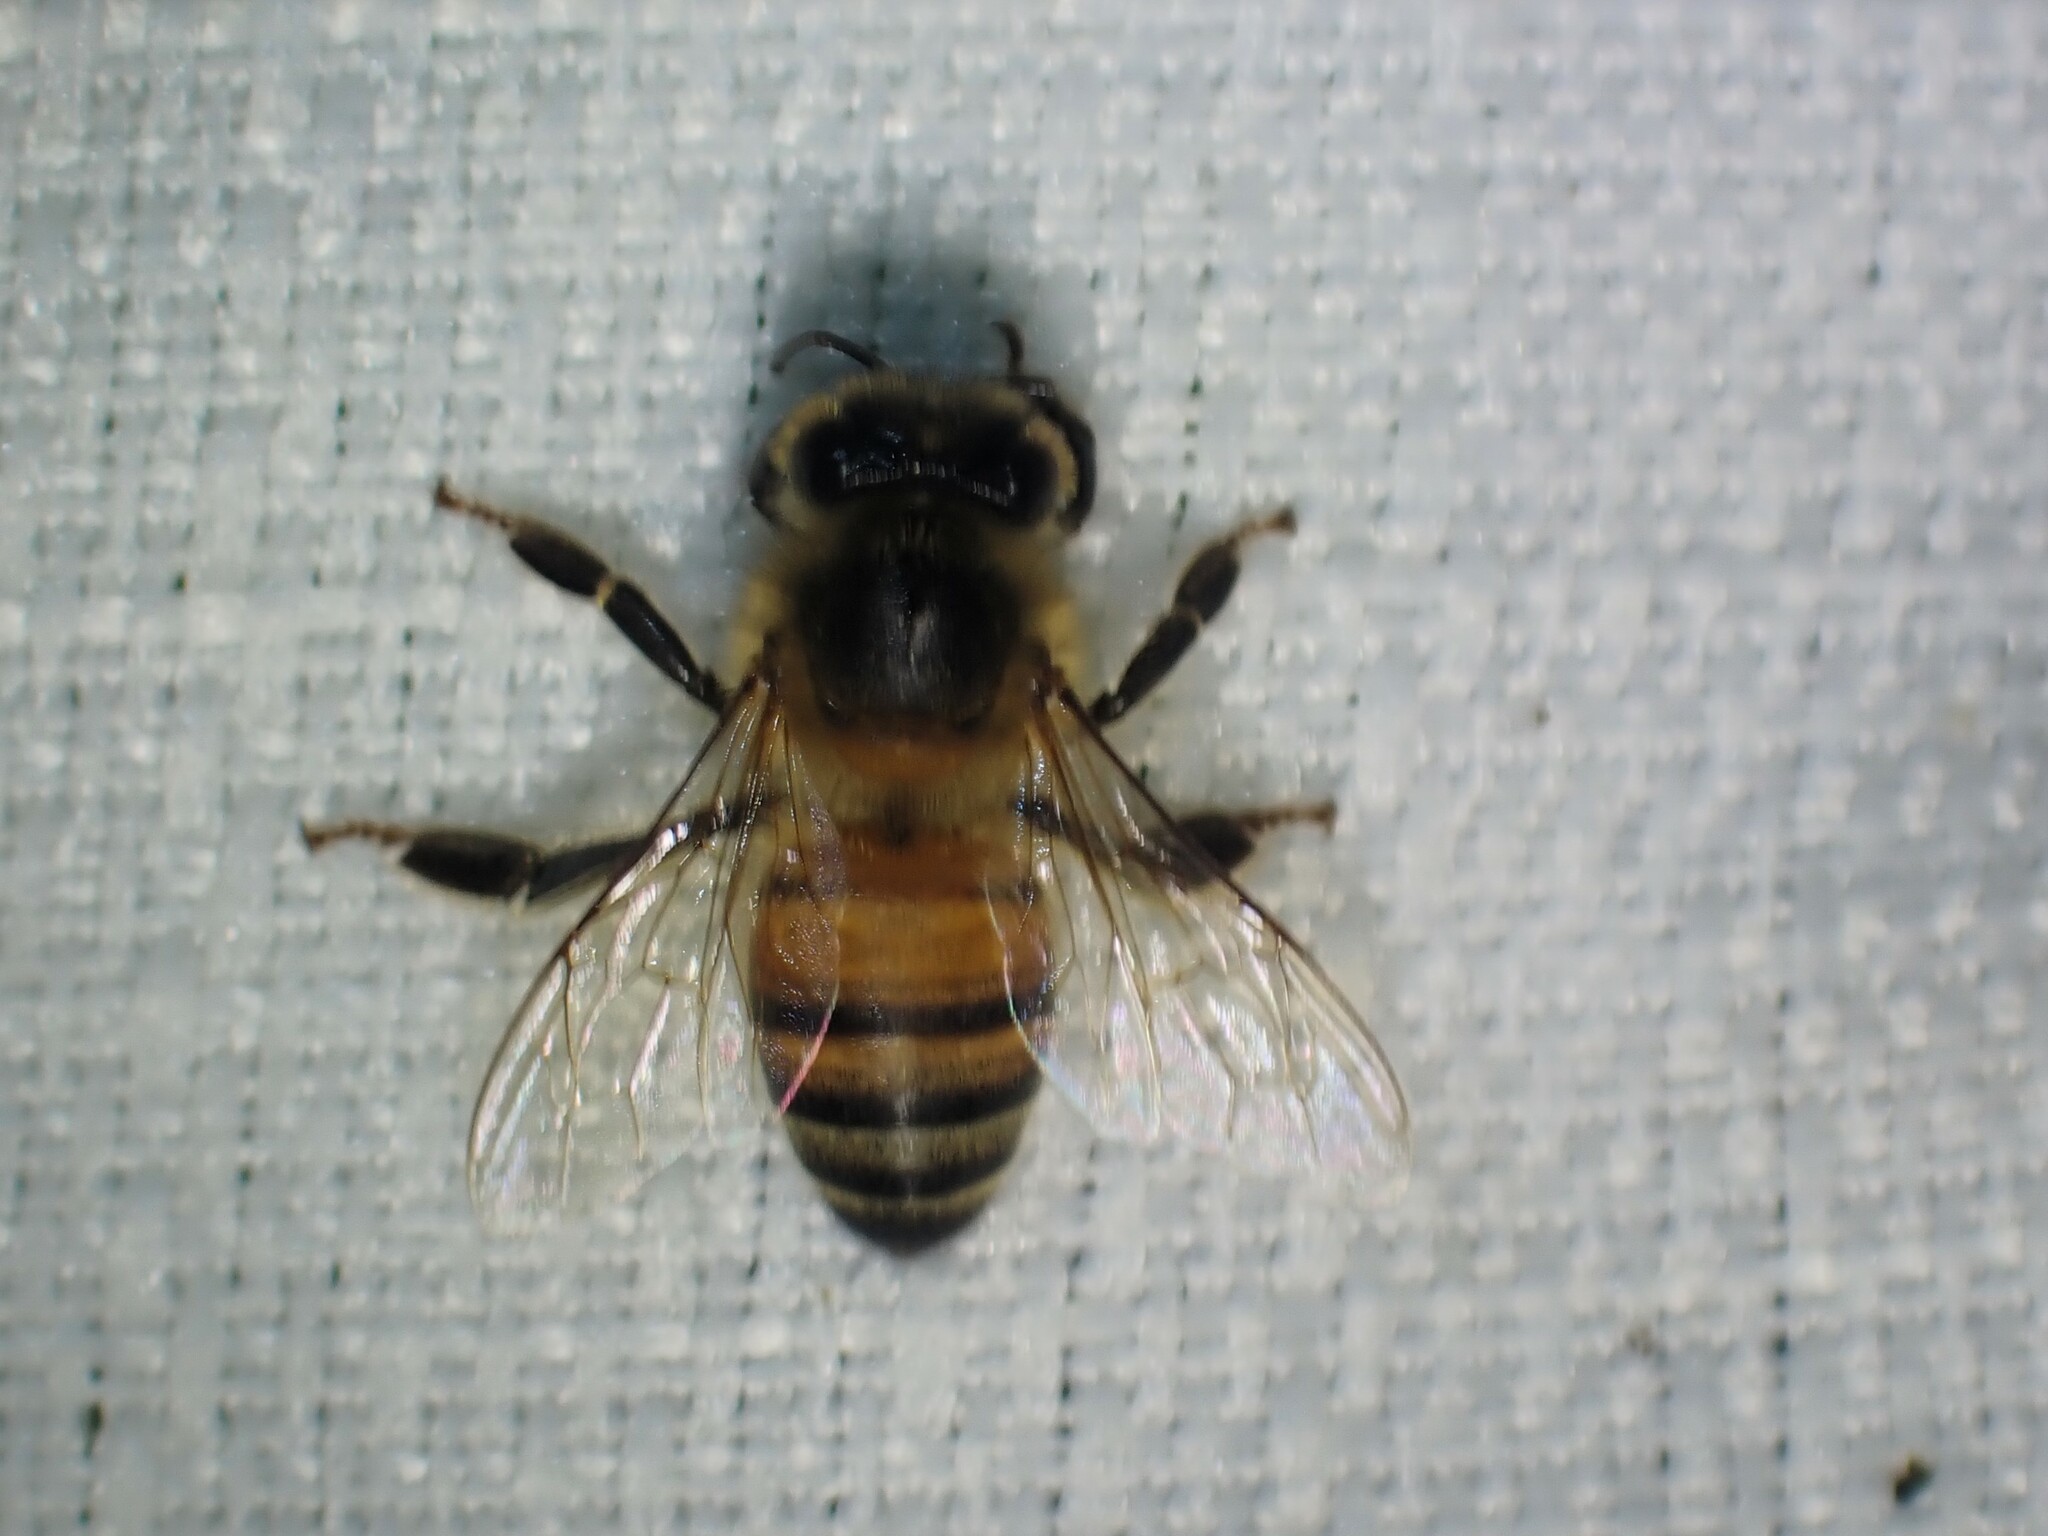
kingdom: Animalia
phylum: Arthropoda
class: Insecta
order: Hymenoptera
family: Apidae
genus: Apis
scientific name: Apis mellifera
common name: Honey bee
